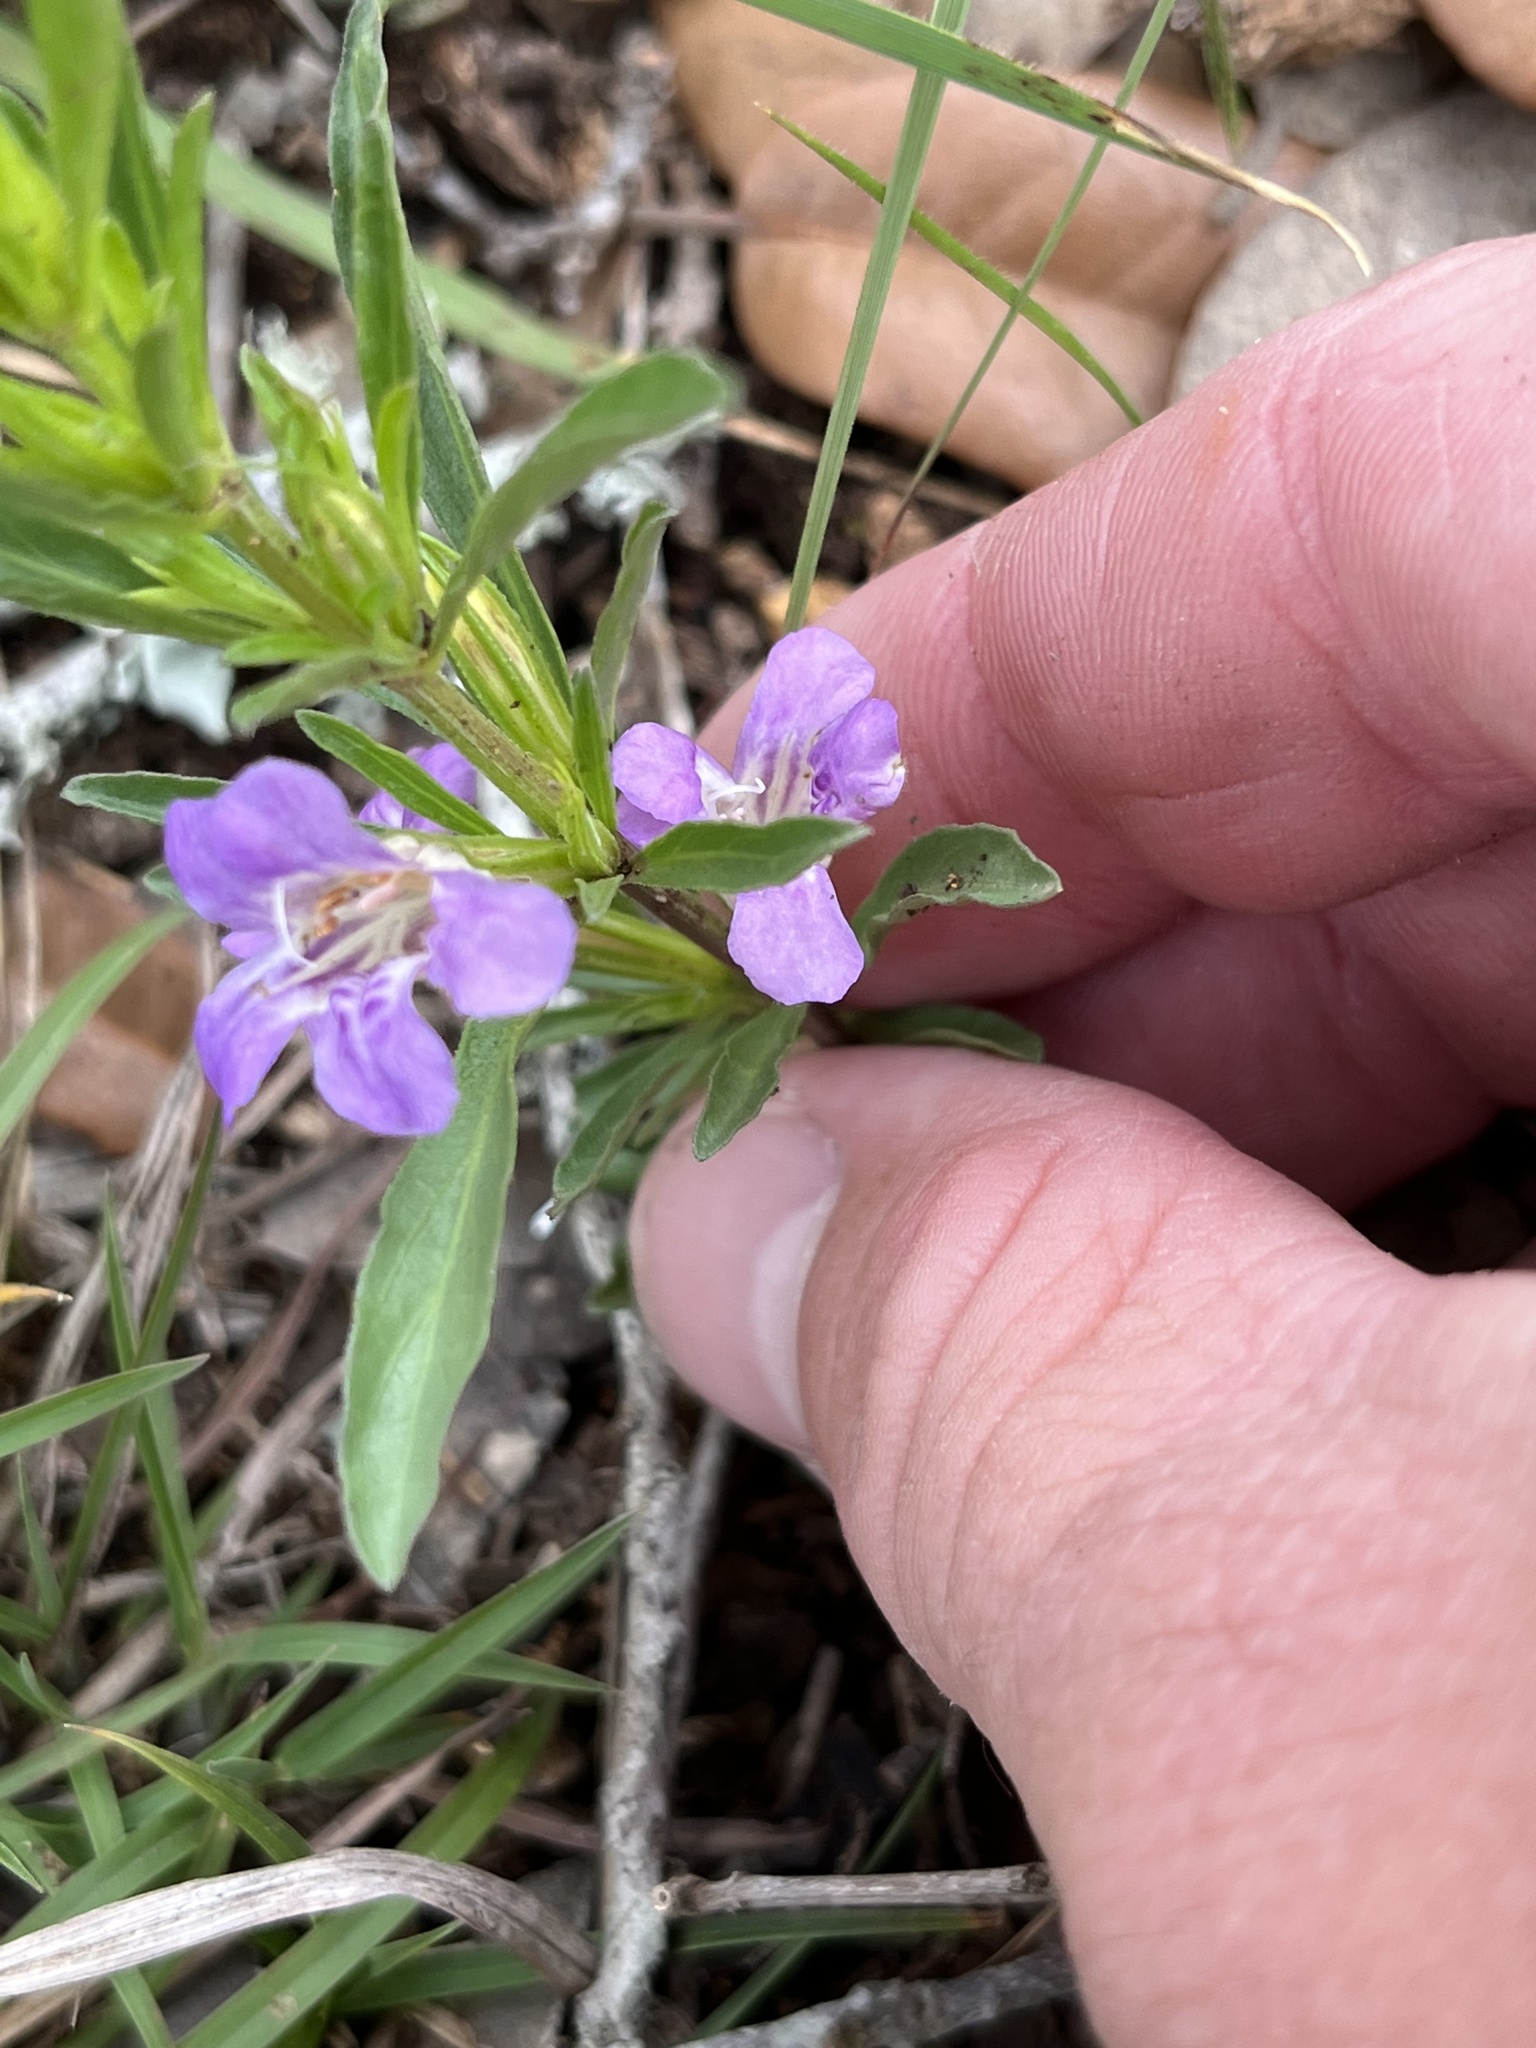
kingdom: Plantae
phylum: Tracheophyta
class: Magnoliopsida
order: Lamiales
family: Acanthaceae
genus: Dyschoriste
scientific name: Dyschoriste linearis
